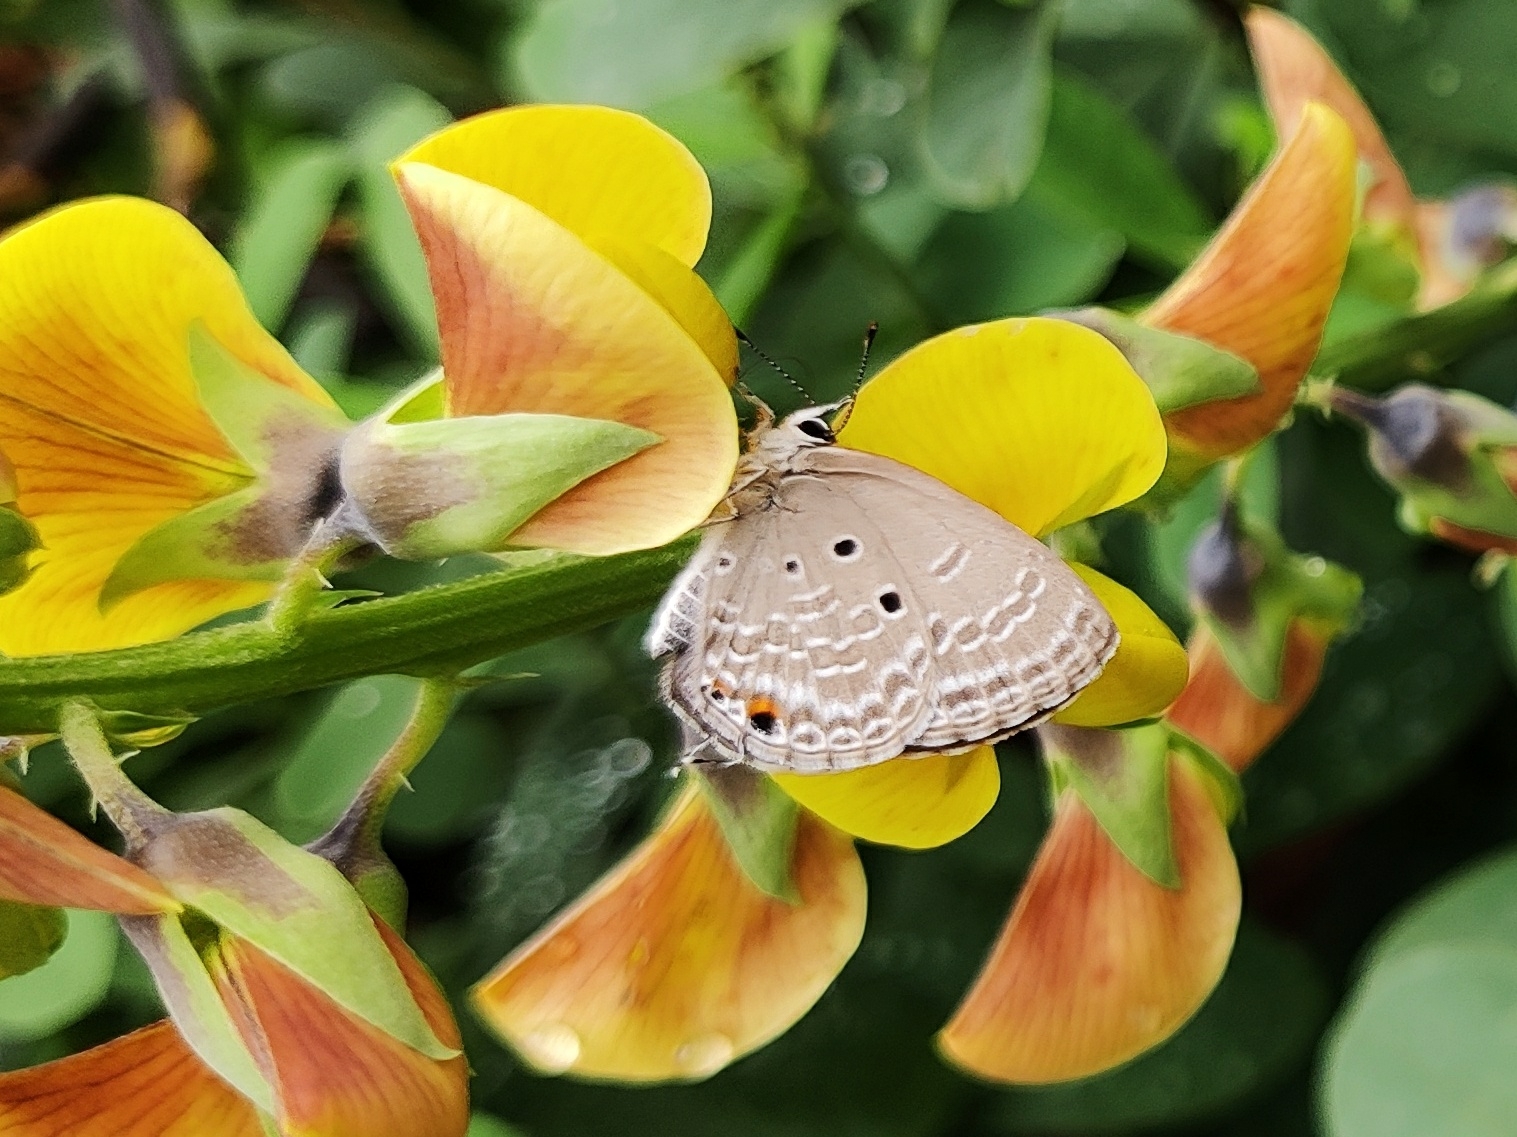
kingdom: Animalia
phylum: Arthropoda
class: Insecta
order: Lepidoptera
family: Lycaenidae
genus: Luthrodes
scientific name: Luthrodes pandava
